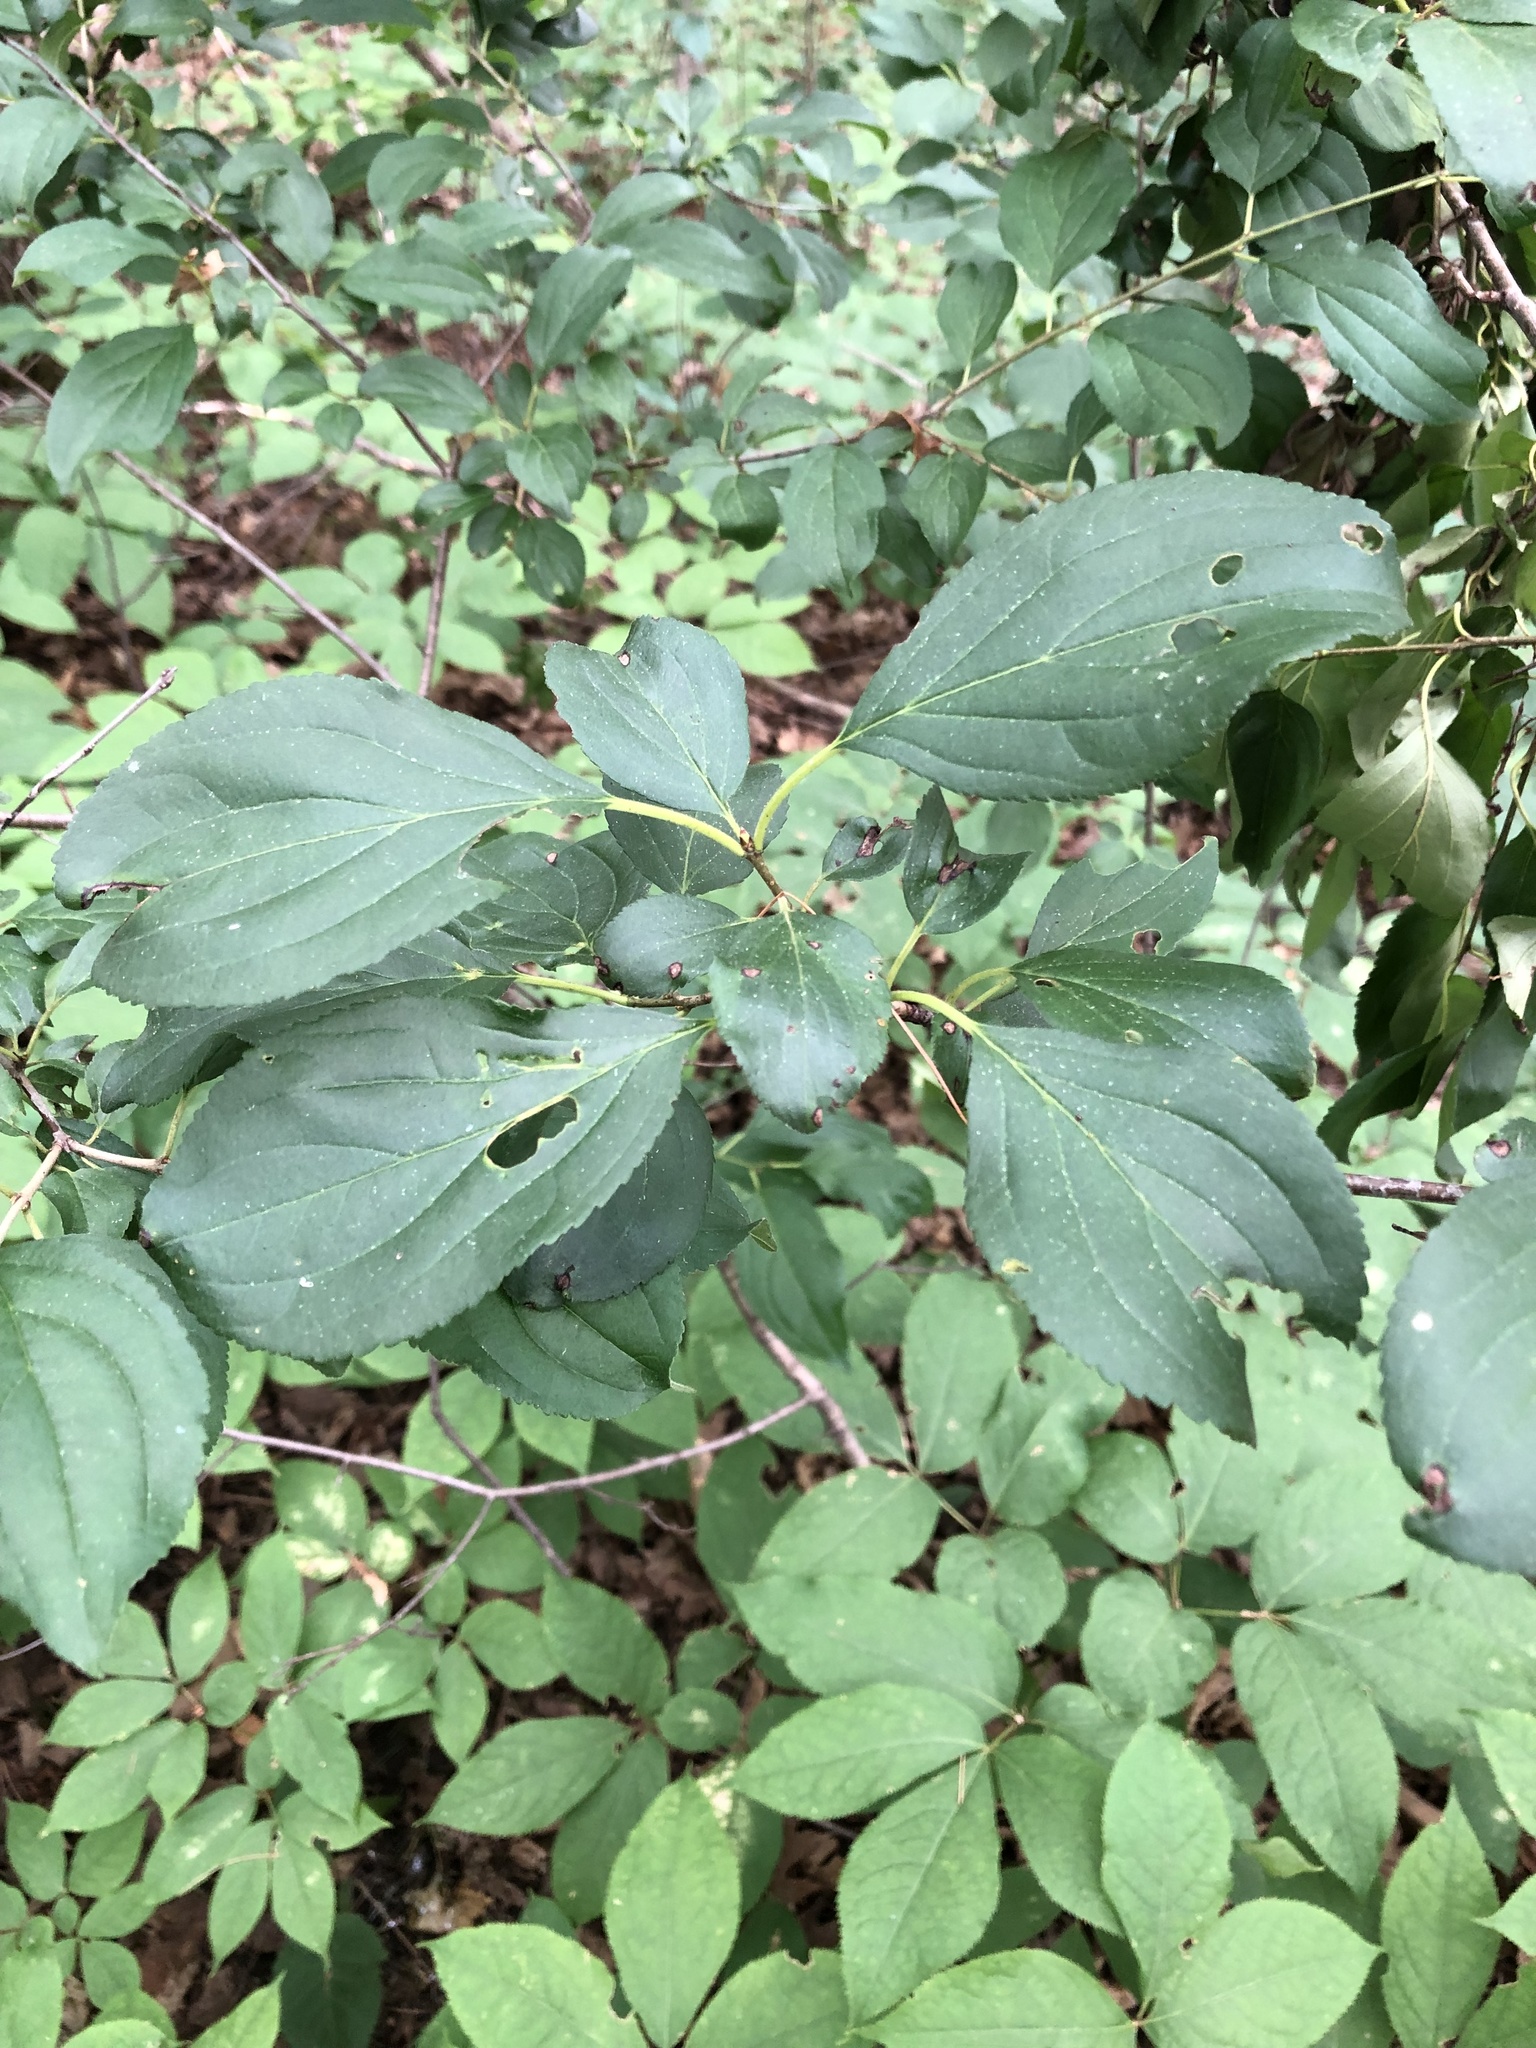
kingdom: Plantae
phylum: Tracheophyta
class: Magnoliopsida
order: Rosales
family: Rhamnaceae
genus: Rhamnus
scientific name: Rhamnus cathartica
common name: Common buckthorn
